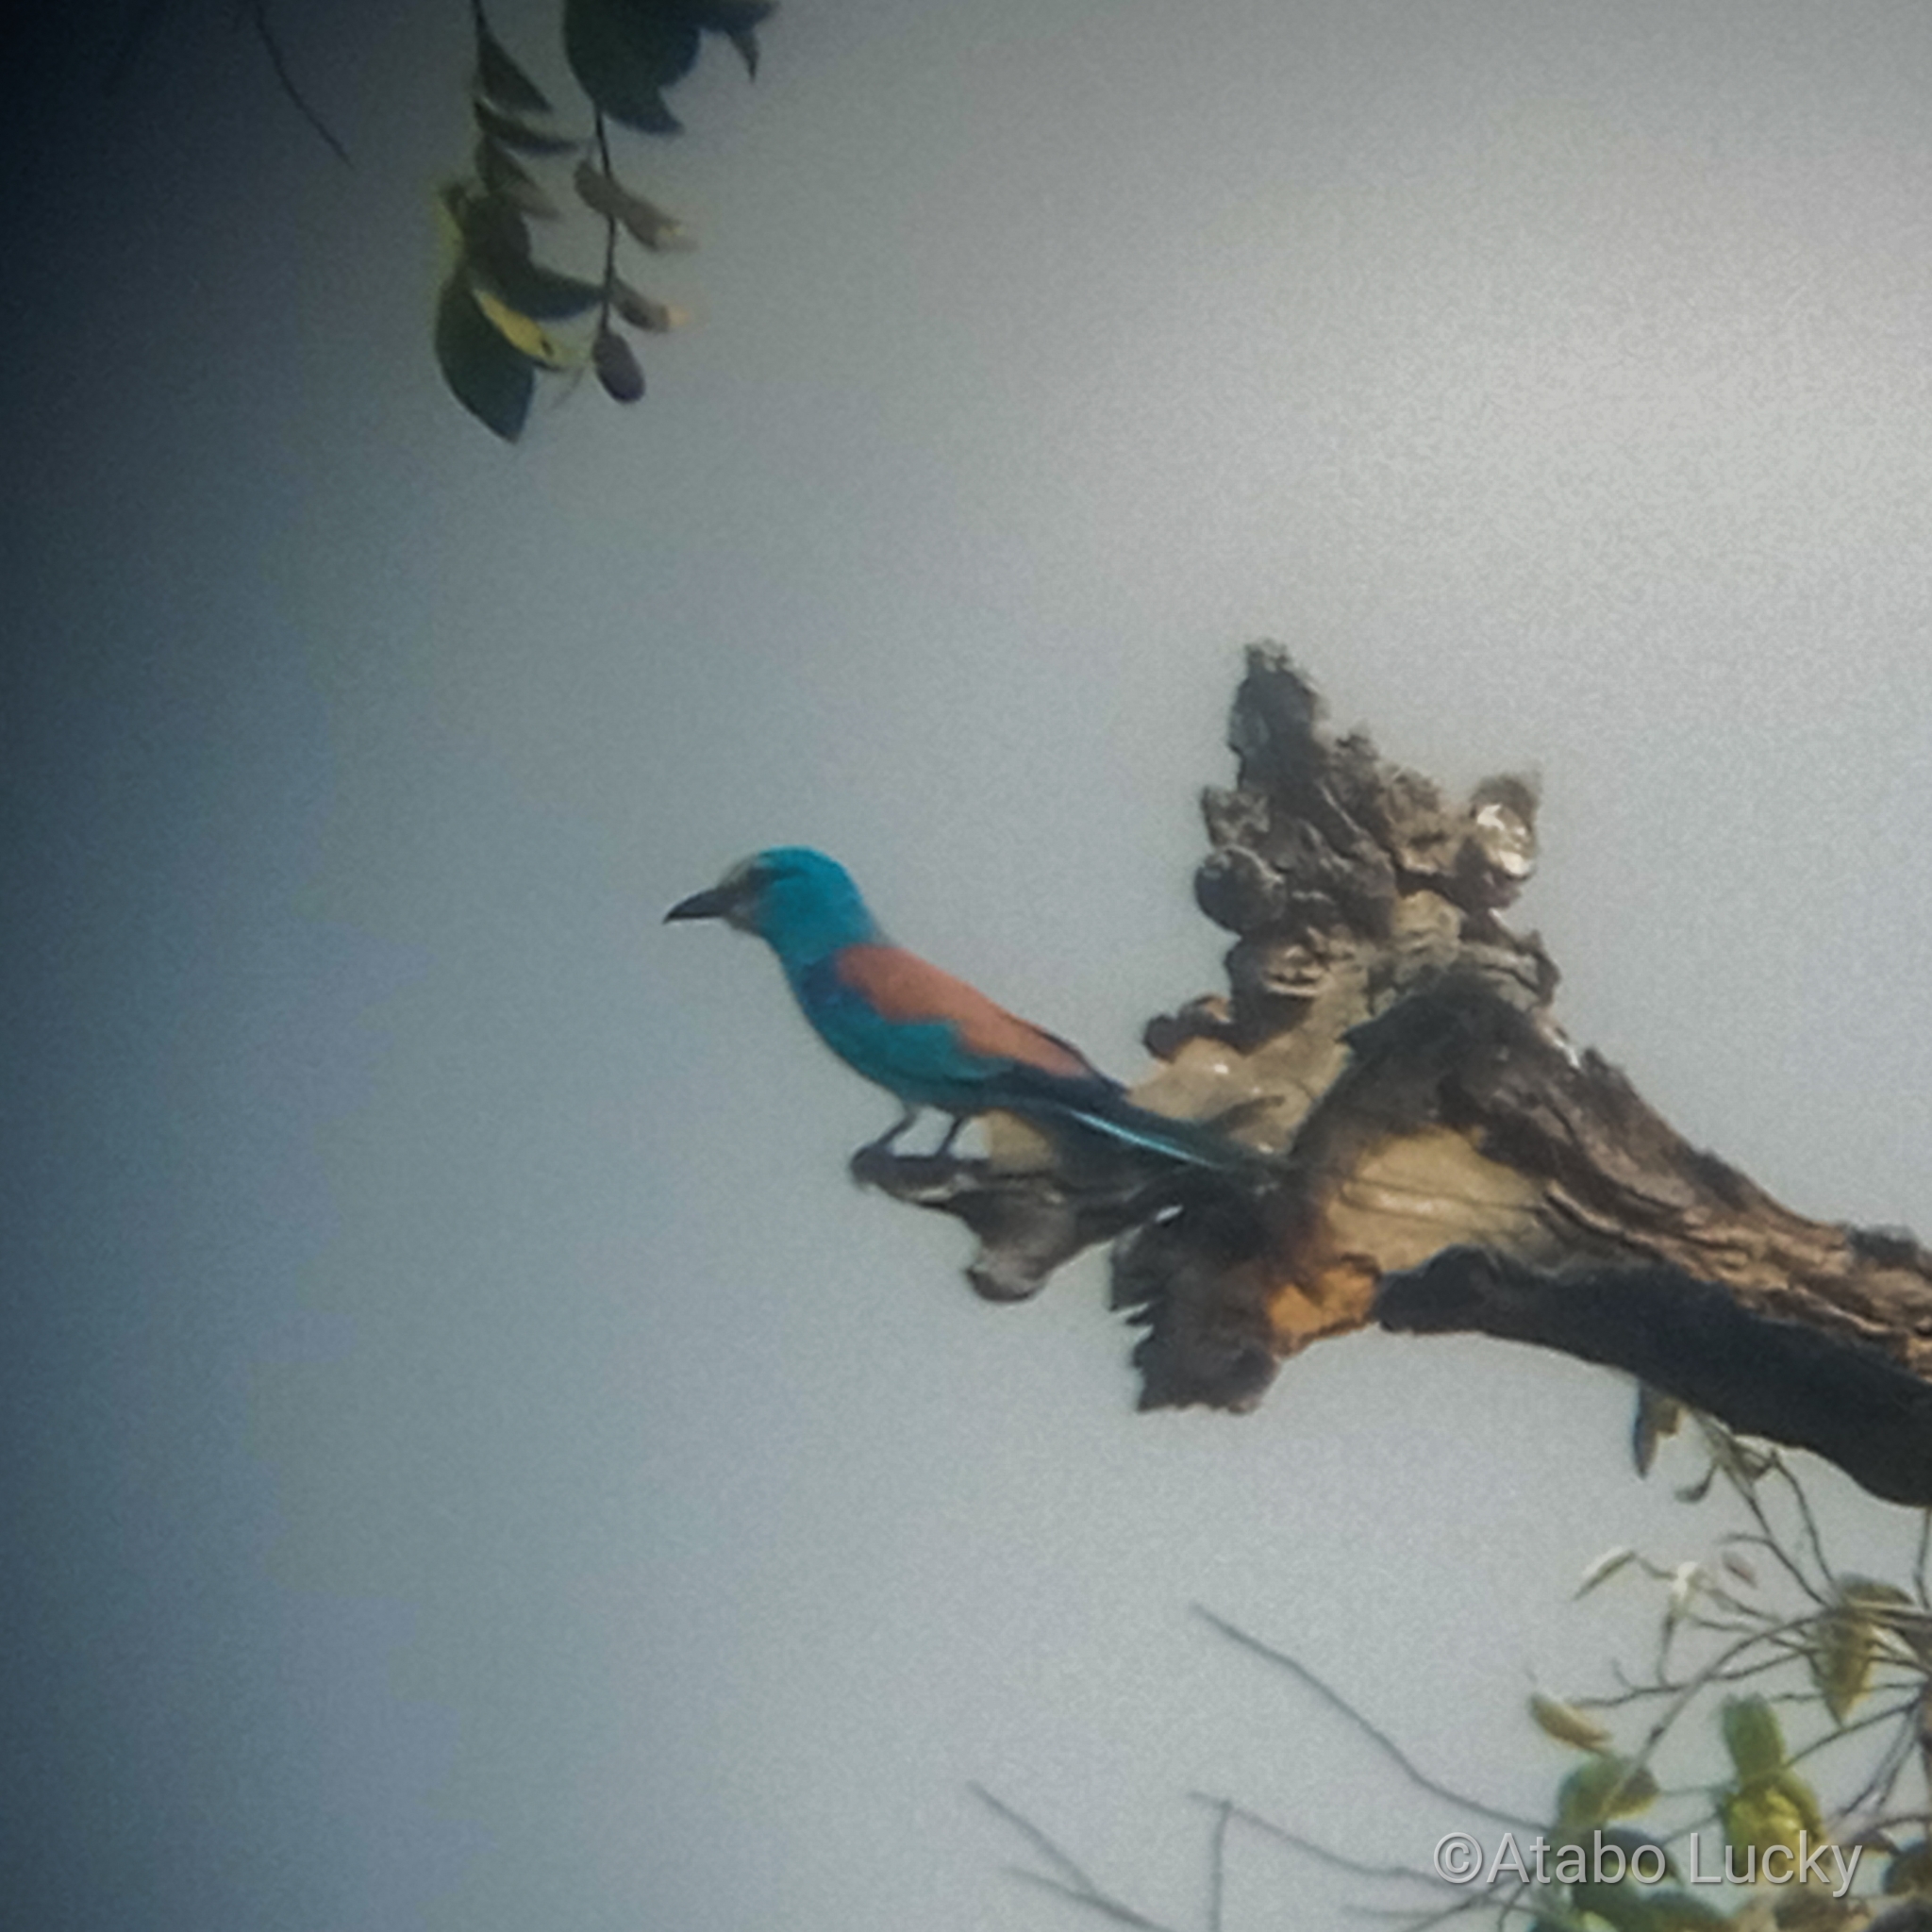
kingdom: Animalia
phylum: Chordata
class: Aves
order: Coraciiformes
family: Coraciidae
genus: Coracias
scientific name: Coracias abyssinicus
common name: Abyssinian roller
